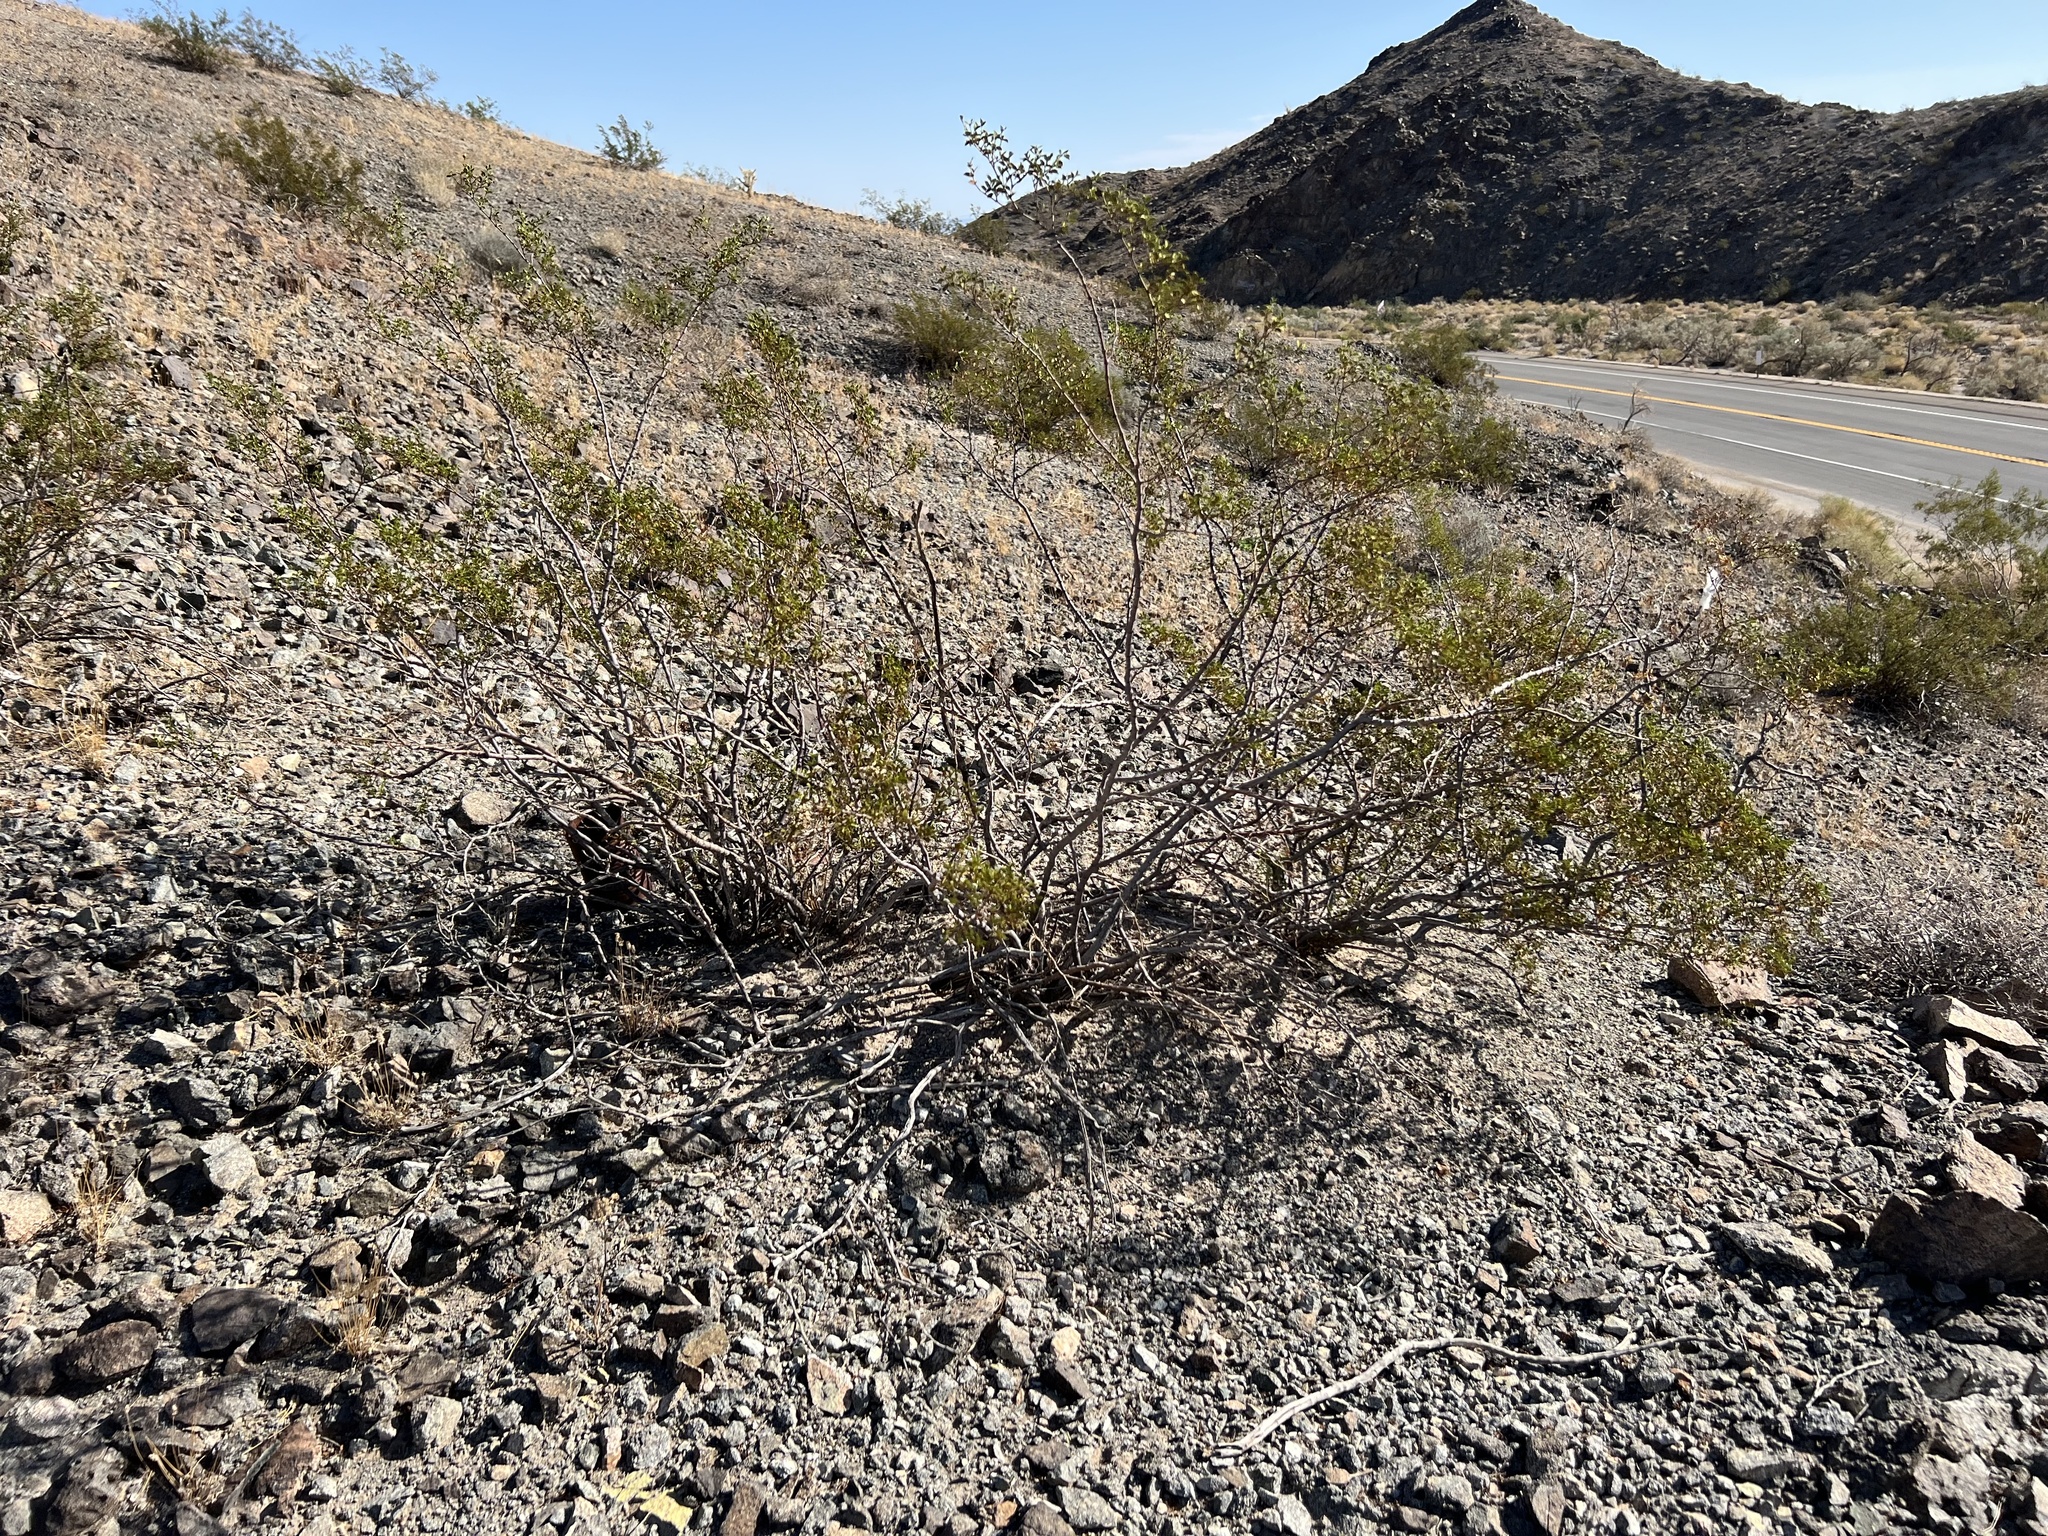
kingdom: Plantae
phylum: Tracheophyta
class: Magnoliopsida
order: Zygophyllales
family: Zygophyllaceae
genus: Larrea
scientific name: Larrea tridentata
